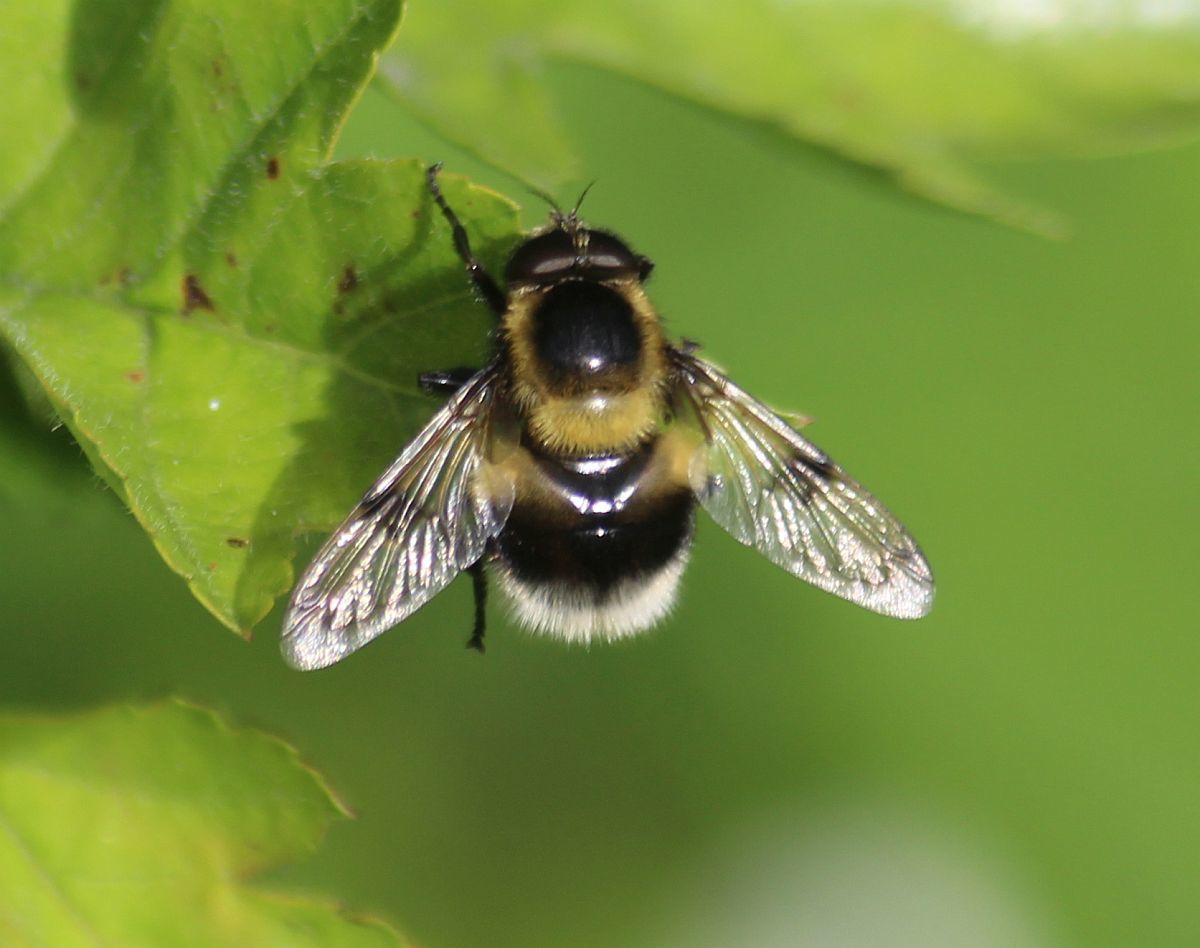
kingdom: Animalia
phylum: Arthropoda
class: Insecta
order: Diptera
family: Syrphidae
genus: Volucella
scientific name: Volucella bombylans
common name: Bumble bee hover fly
